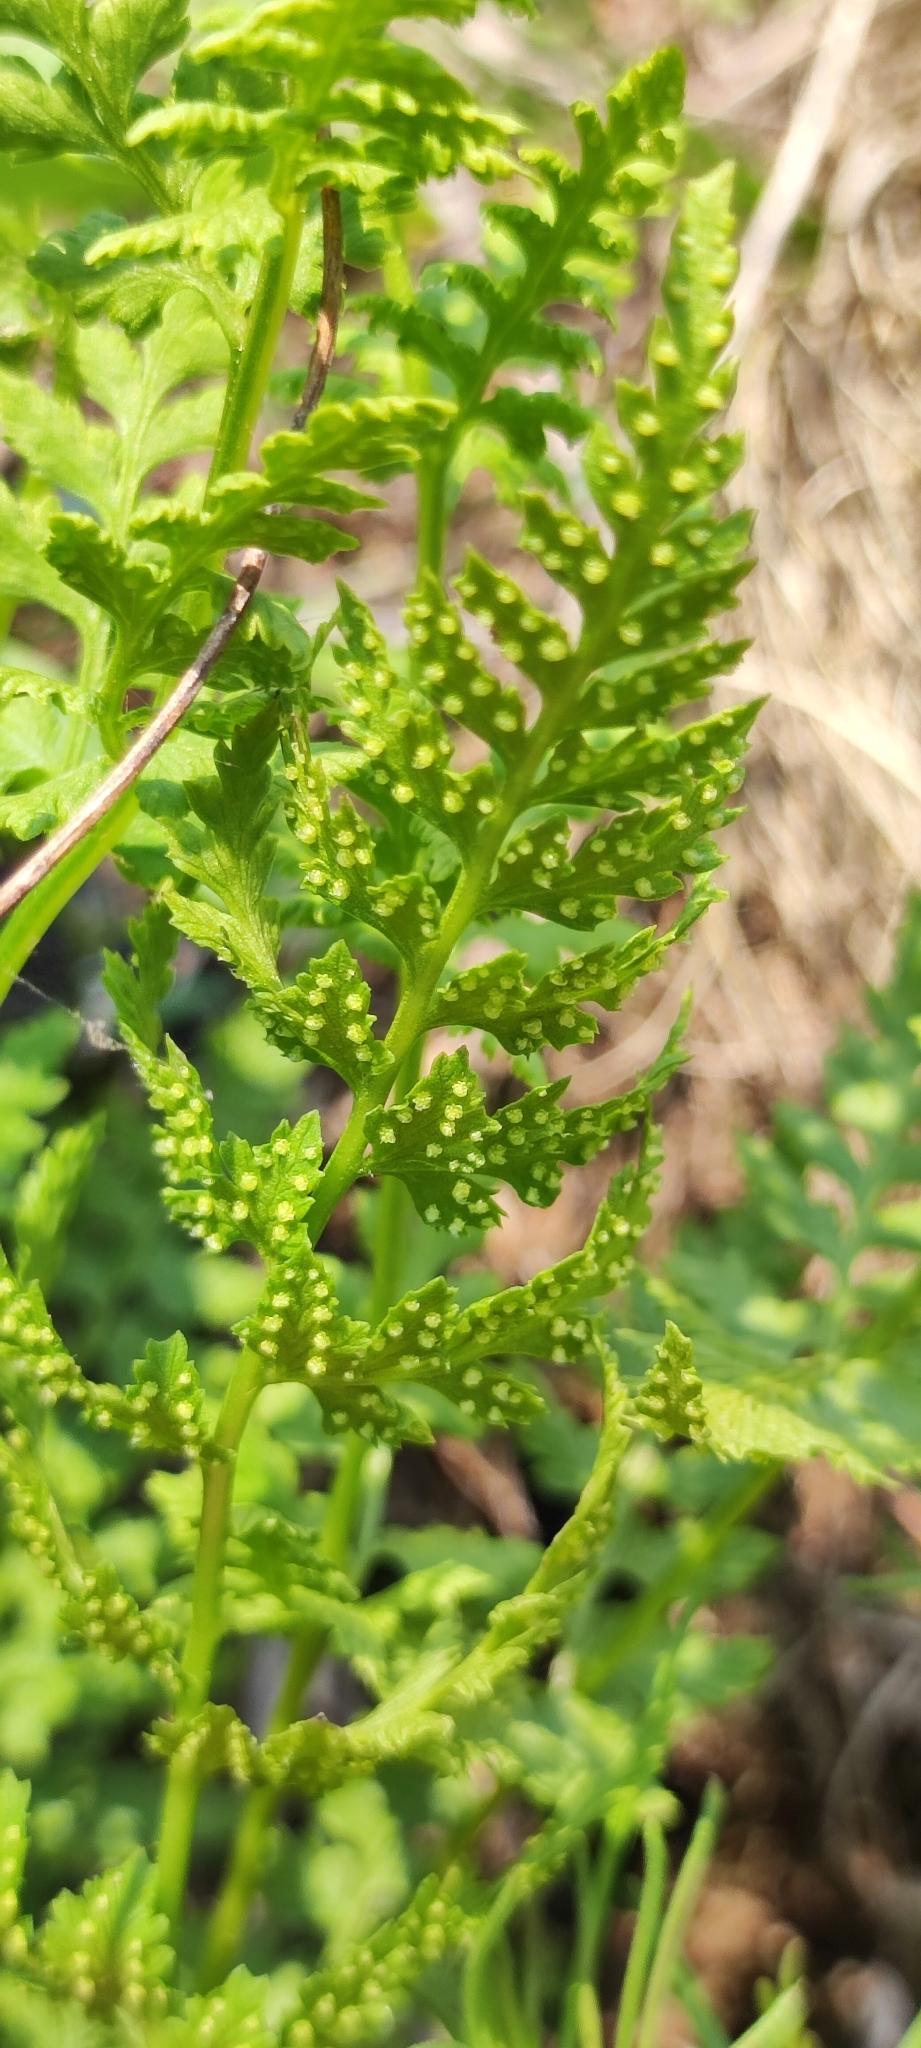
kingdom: Plantae
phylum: Tracheophyta
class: Polypodiopsida
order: Polypodiales
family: Cystopteridaceae
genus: Cystopteris
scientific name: Cystopteris fragilis
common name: Brittle bladder fern
